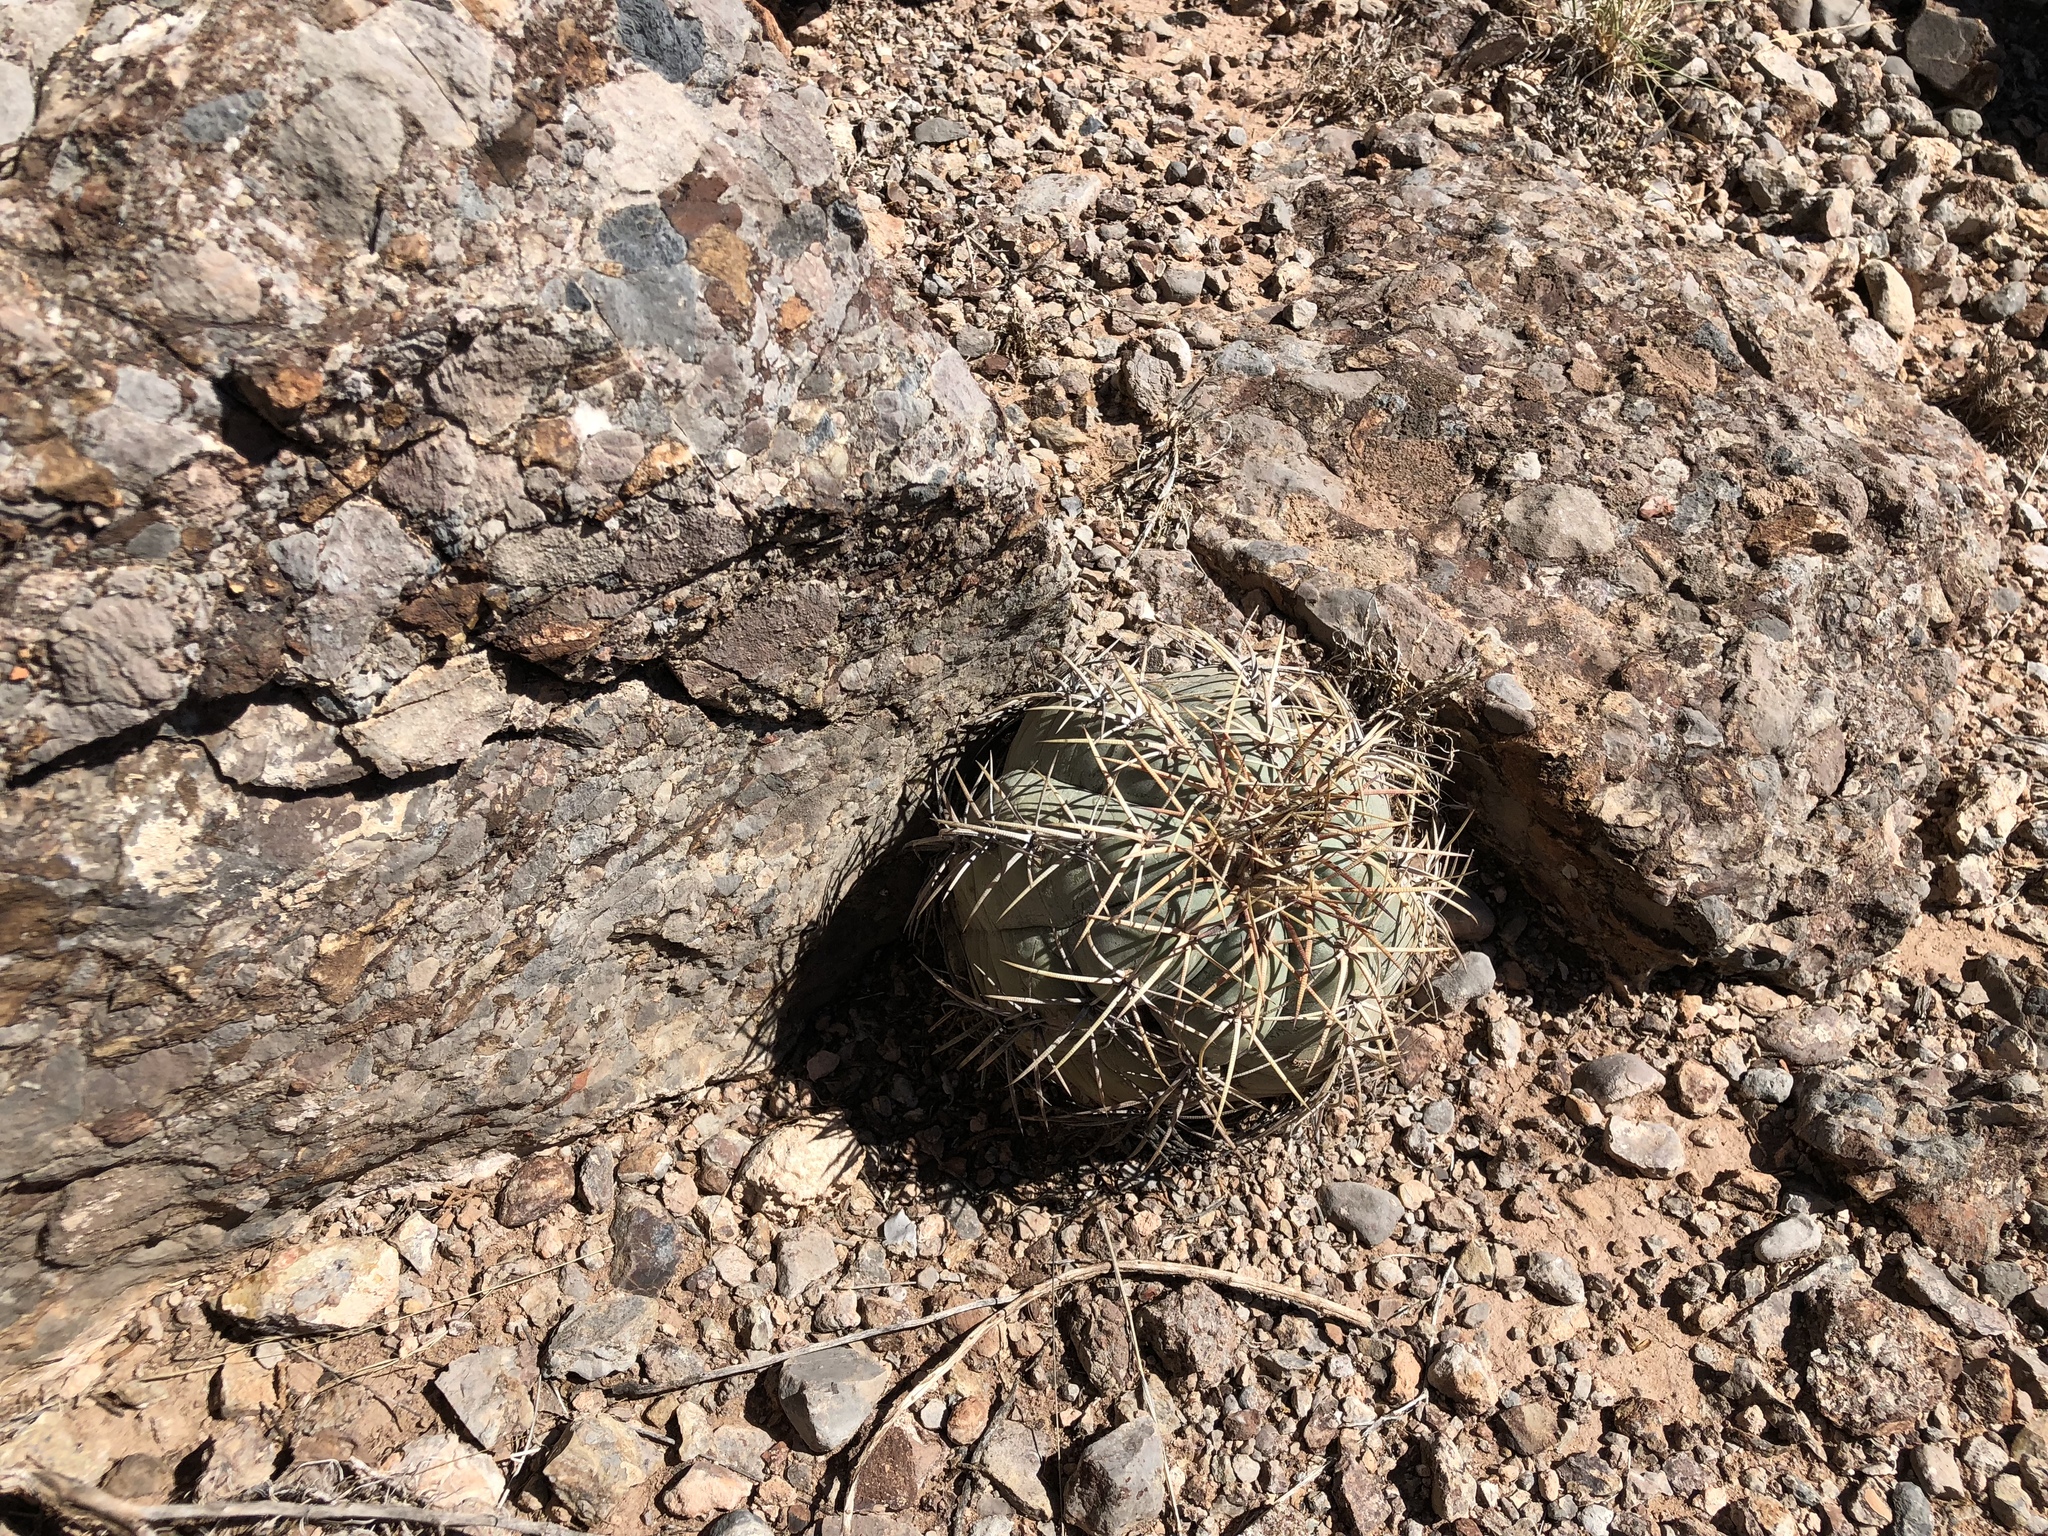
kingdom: Plantae
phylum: Tracheophyta
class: Magnoliopsida
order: Caryophyllales
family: Cactaceae
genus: Echinocactus
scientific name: Echinocactus horizonthalonius
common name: Devilshead
